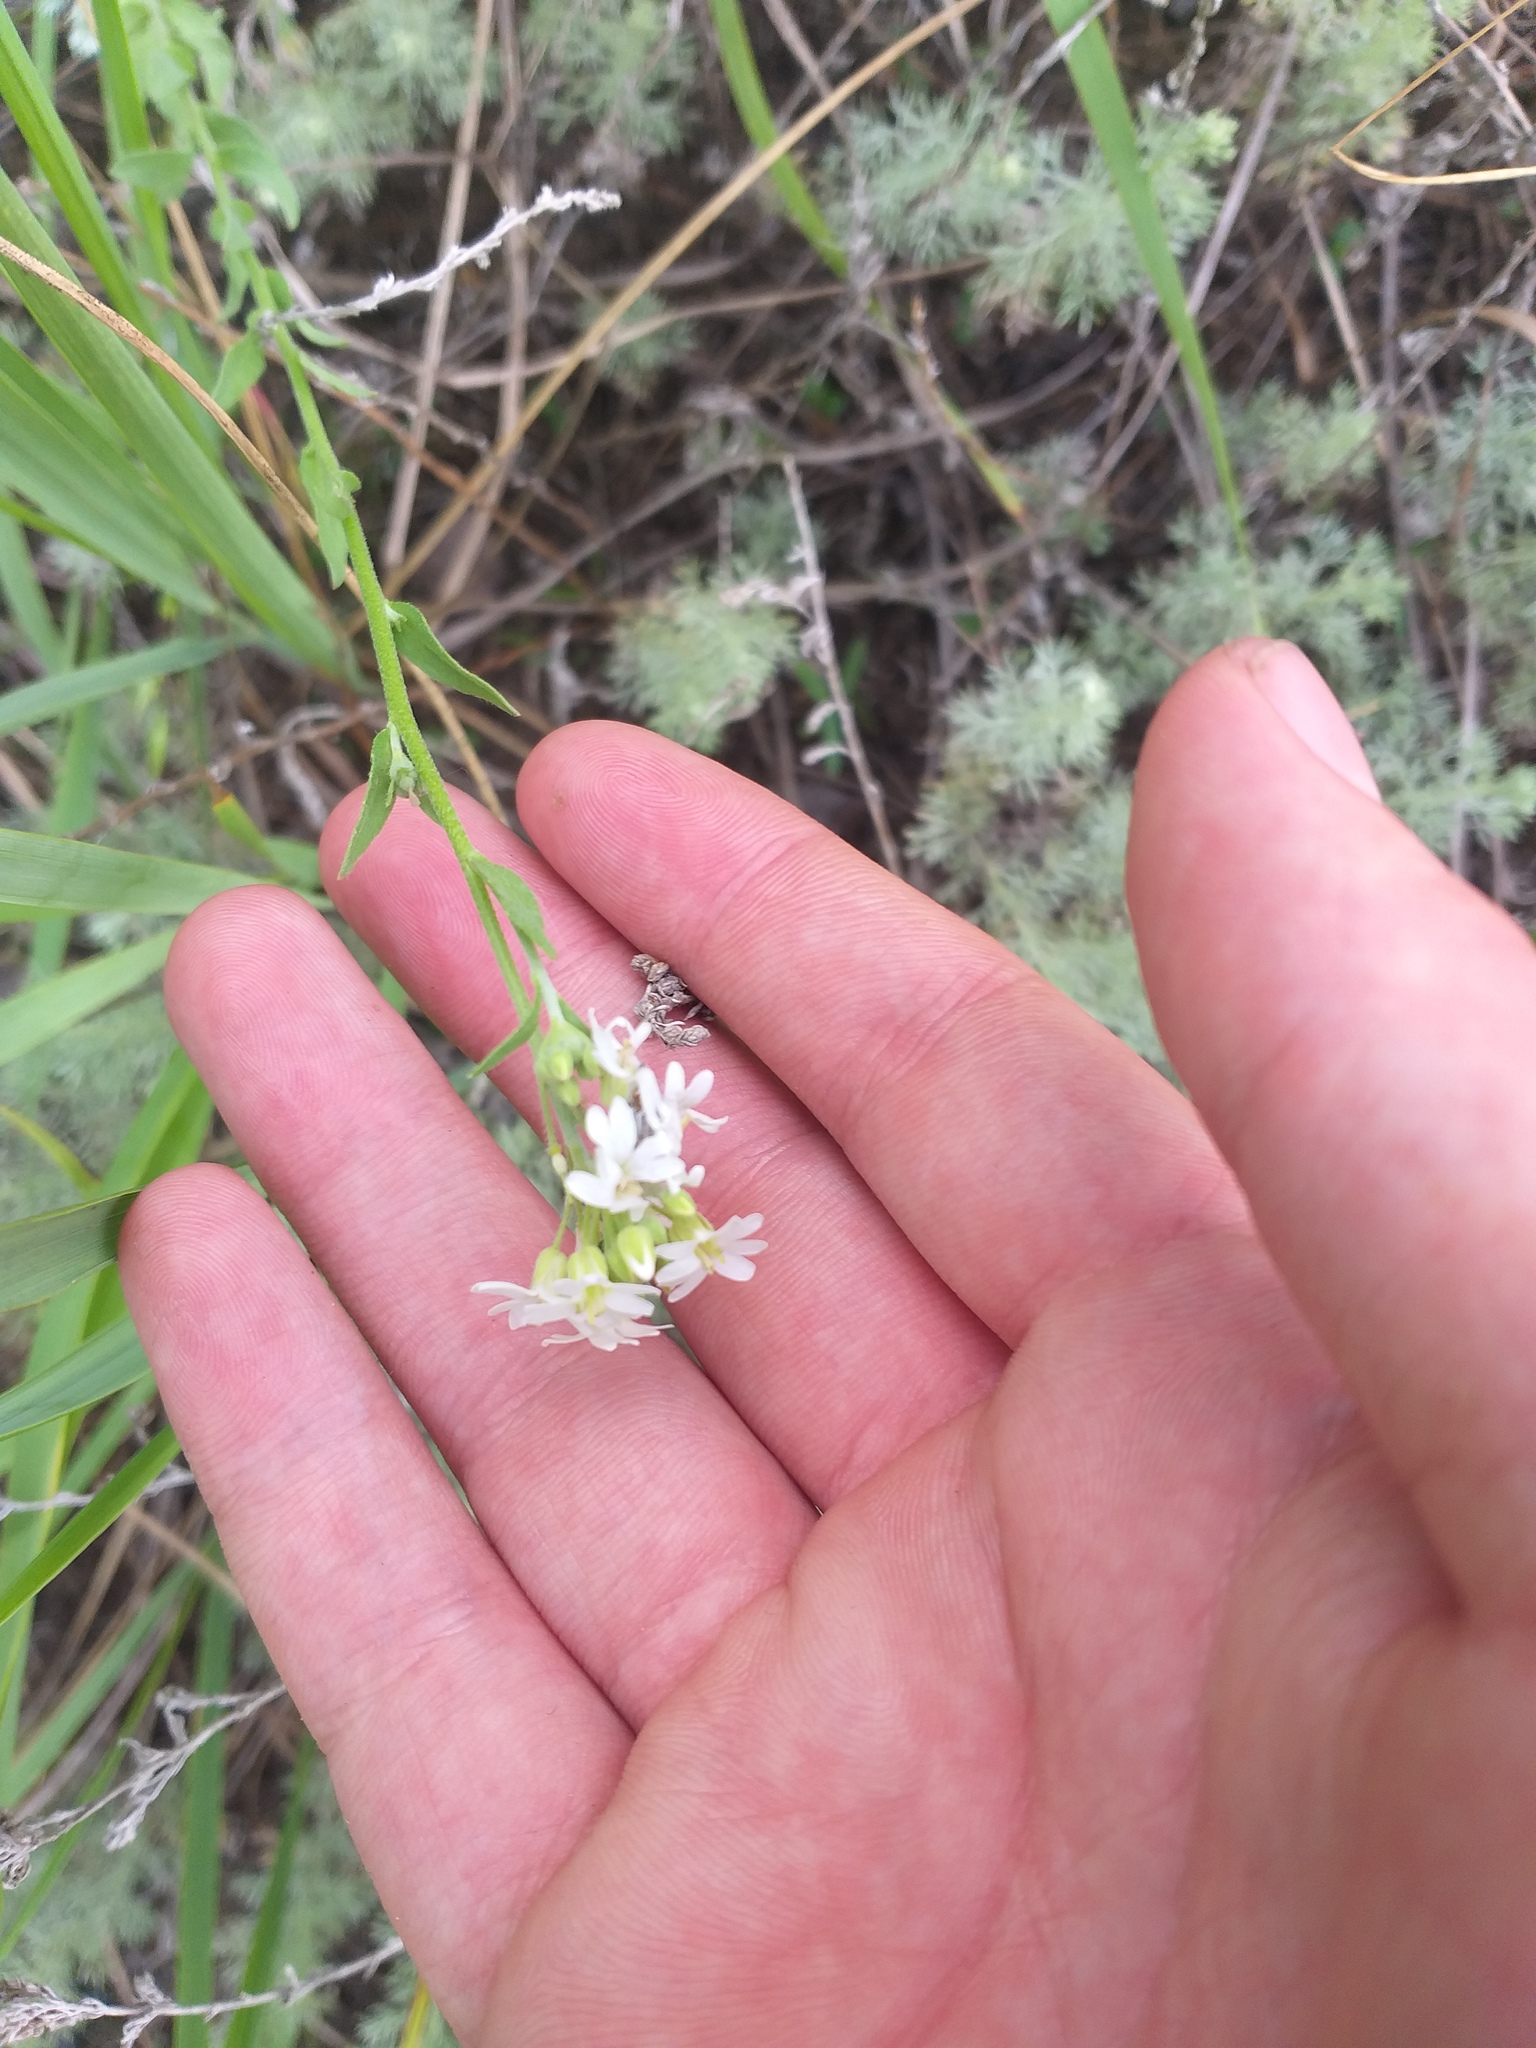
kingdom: Plantae
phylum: Tracheophyta
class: Magnoliopsida
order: Brassicales
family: Brassicaceae
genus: Berteroa
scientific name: Berteroa incana
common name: Hoary alison
